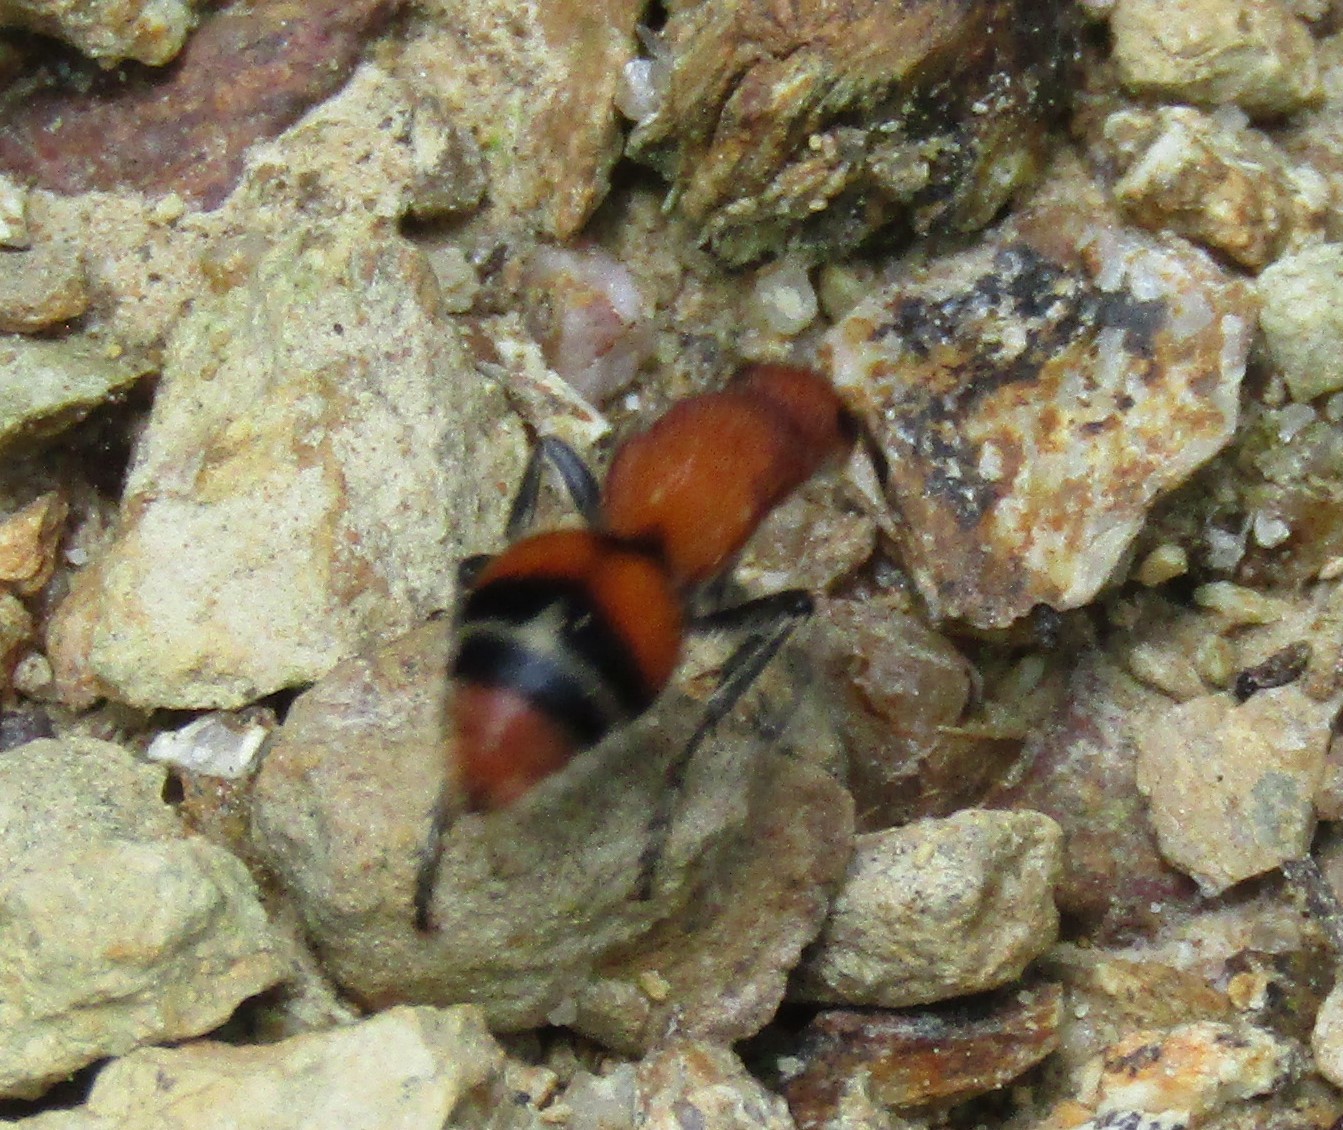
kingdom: Animalia
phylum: Arthropoda
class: Insecta
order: Hymenoptera
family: Mutillidae
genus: Timulla
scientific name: Timulla
